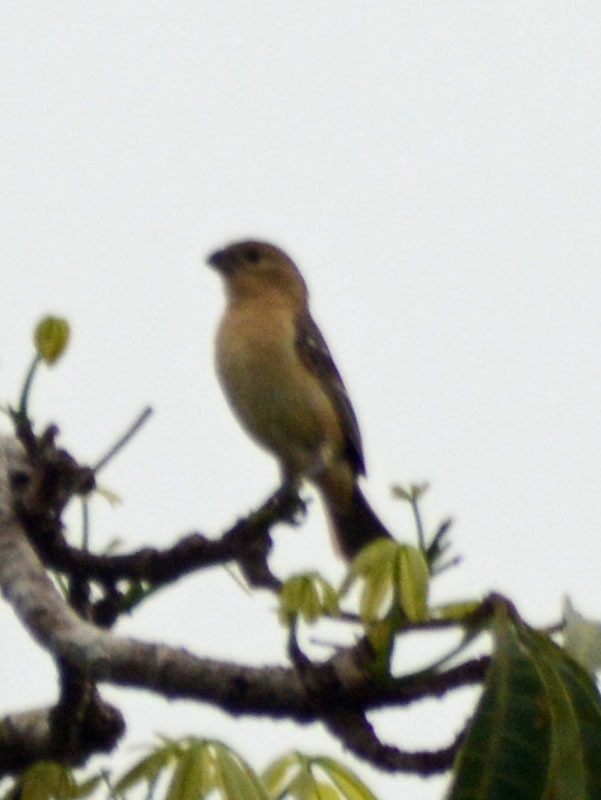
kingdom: Animalia
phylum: Chordata
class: Aves
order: Passeriformes
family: Thraupidae
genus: Sporophila
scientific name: Sporophila morelleti
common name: Morelet's seedeater
